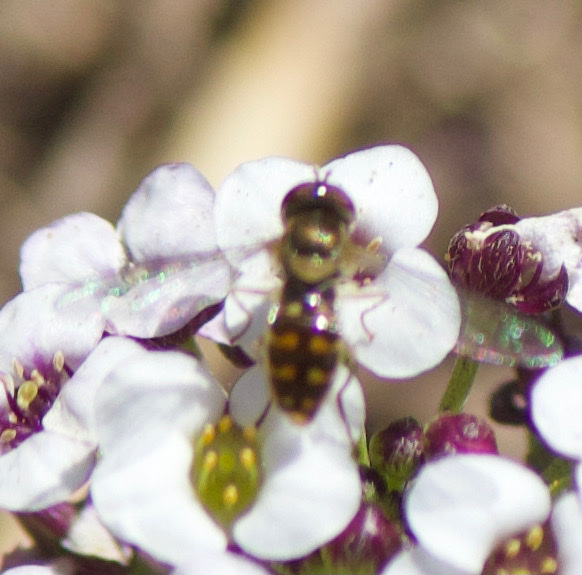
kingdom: Animalia
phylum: Arthropoda
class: Insecta
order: Diptera
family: Syrphidae
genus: Toxomerus
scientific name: Toxomerus vertebratus
